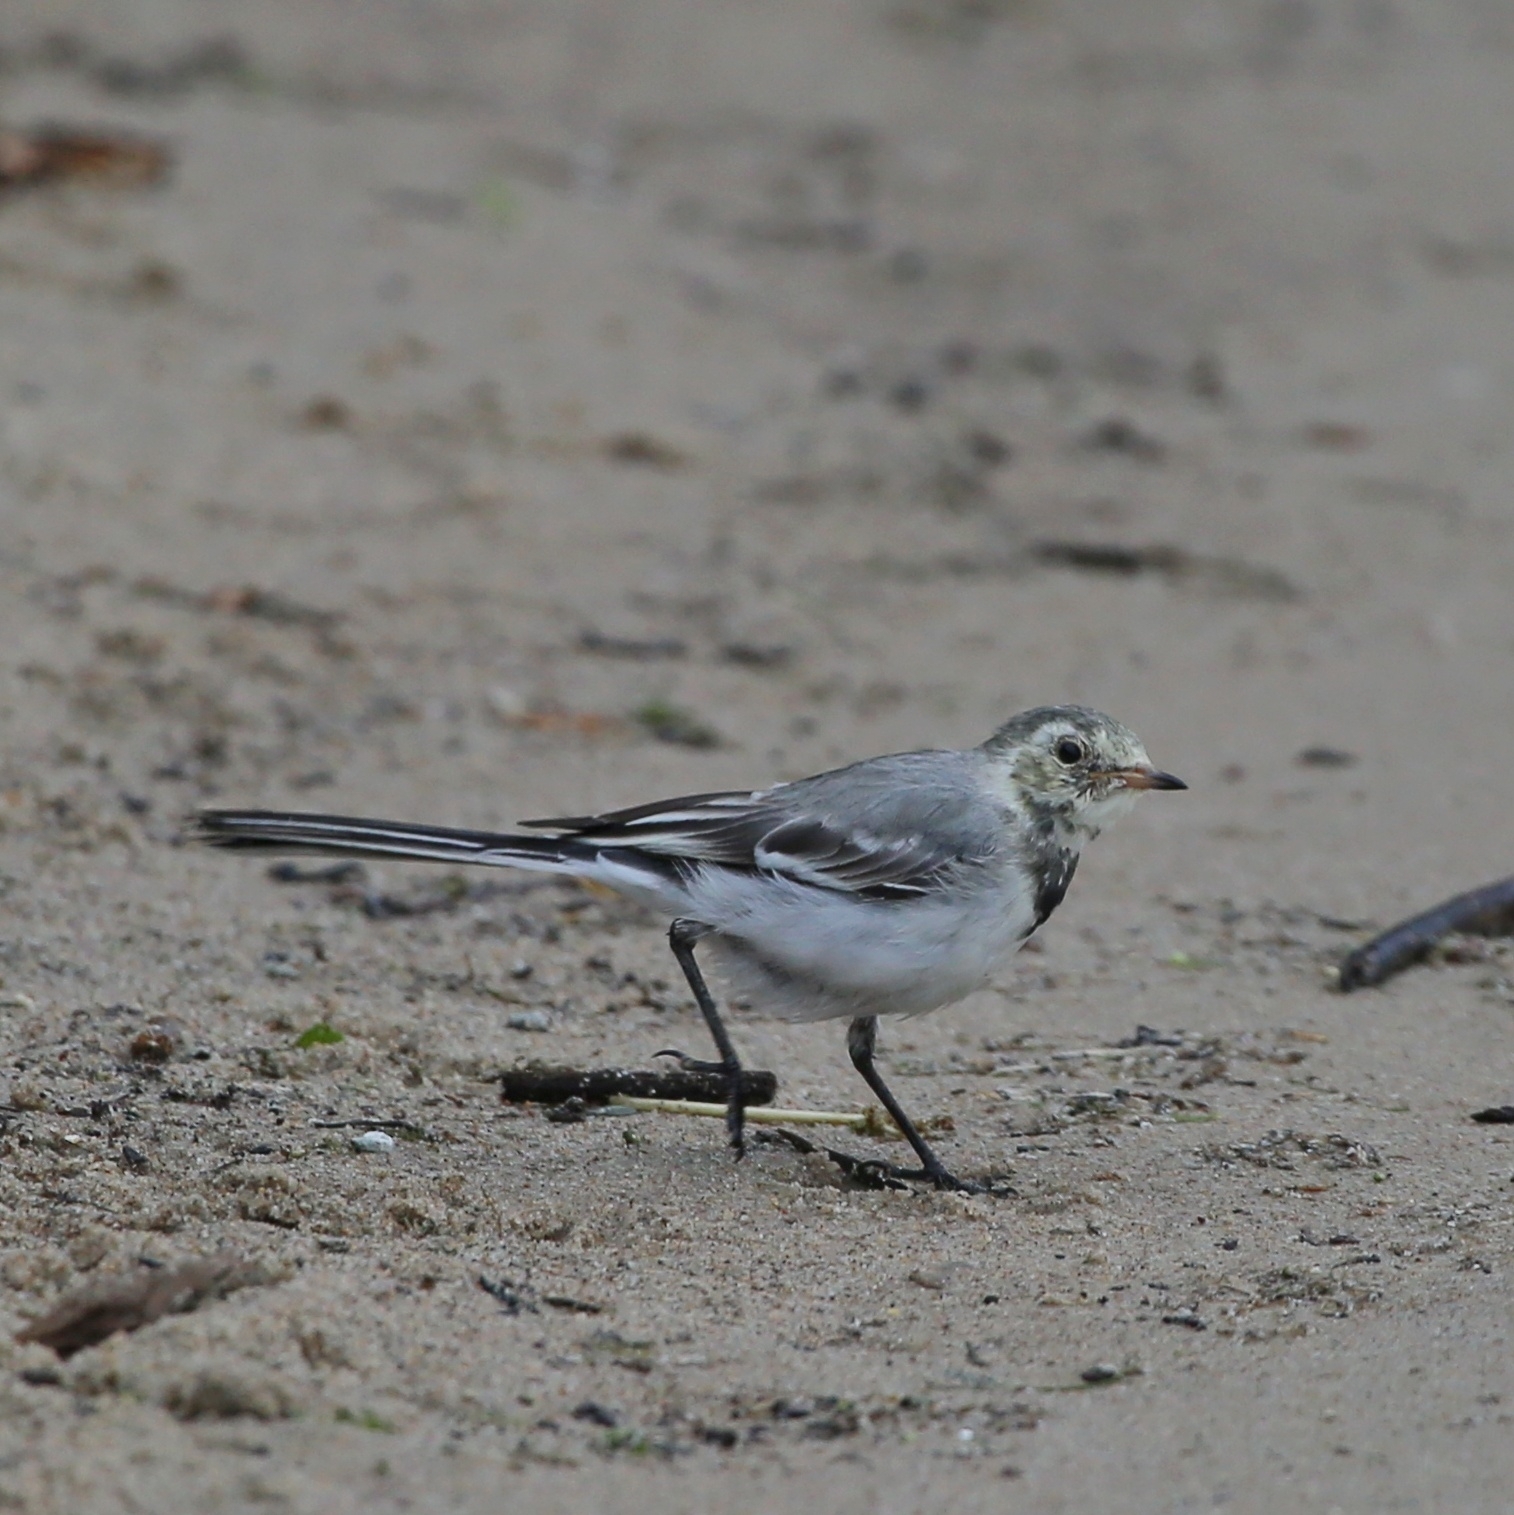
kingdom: Animalia
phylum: Chordata
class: Aves
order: Passeriformes
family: Motacillidae
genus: Motacilla
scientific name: Motacilla alba
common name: White wagtail
